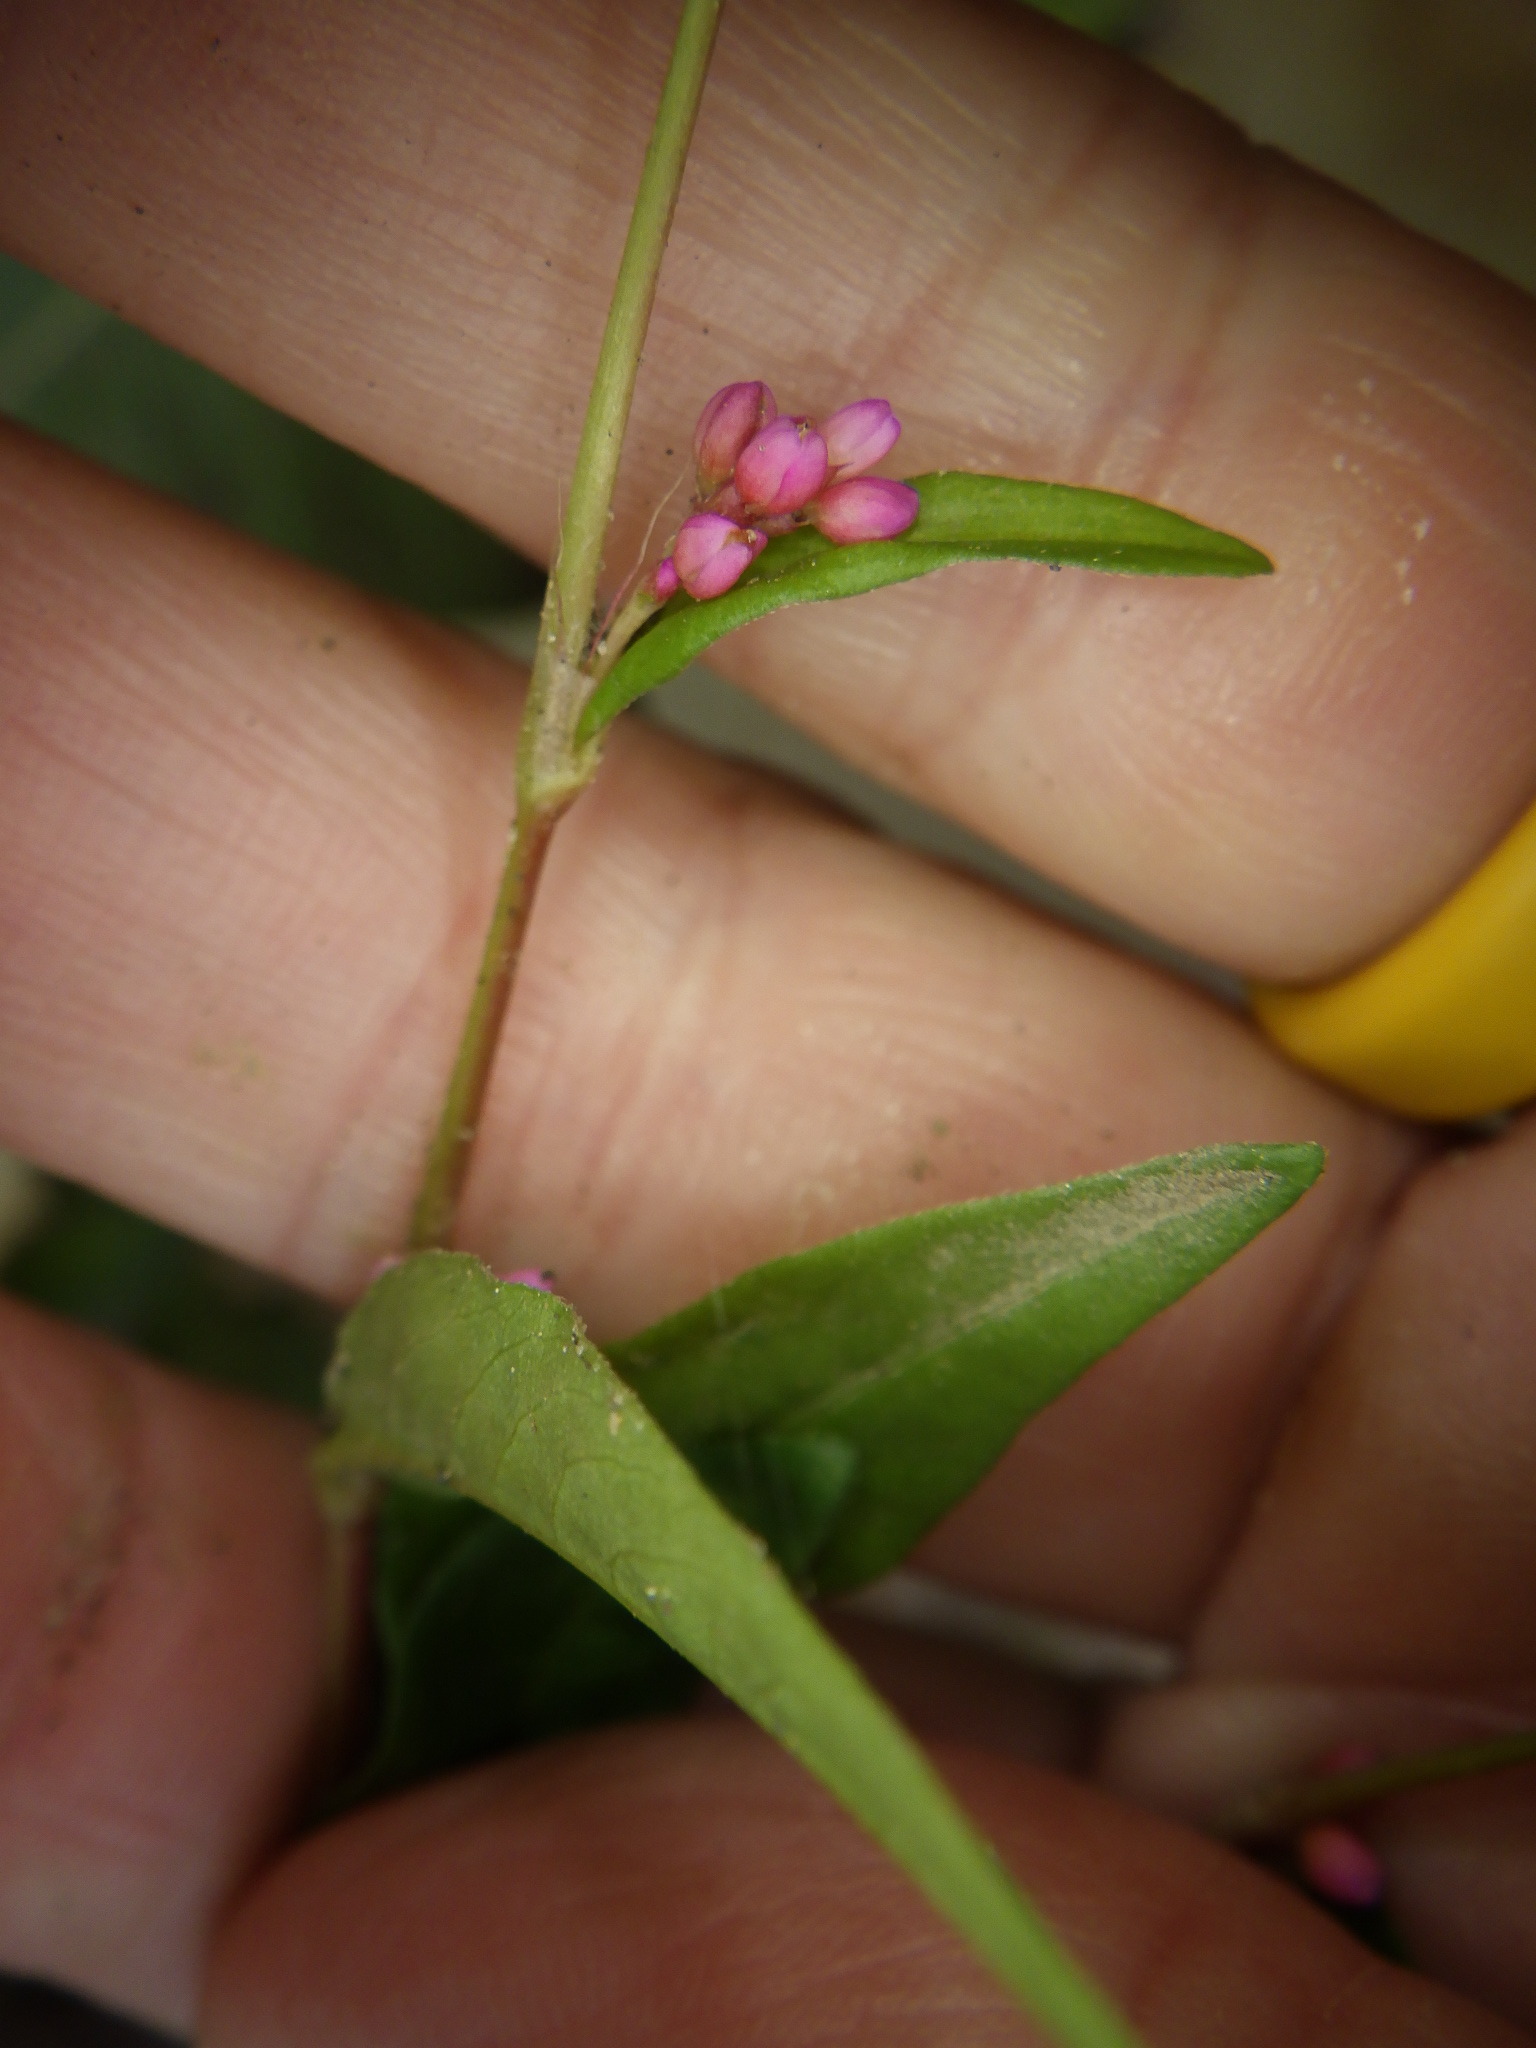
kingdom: Plantae
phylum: Tracheophyta
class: Magnoliopsida
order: Caryophyllales
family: Polygonaceae
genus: Persicaria
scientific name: Persicaria longiseta
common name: Bristly lady's-thumb
